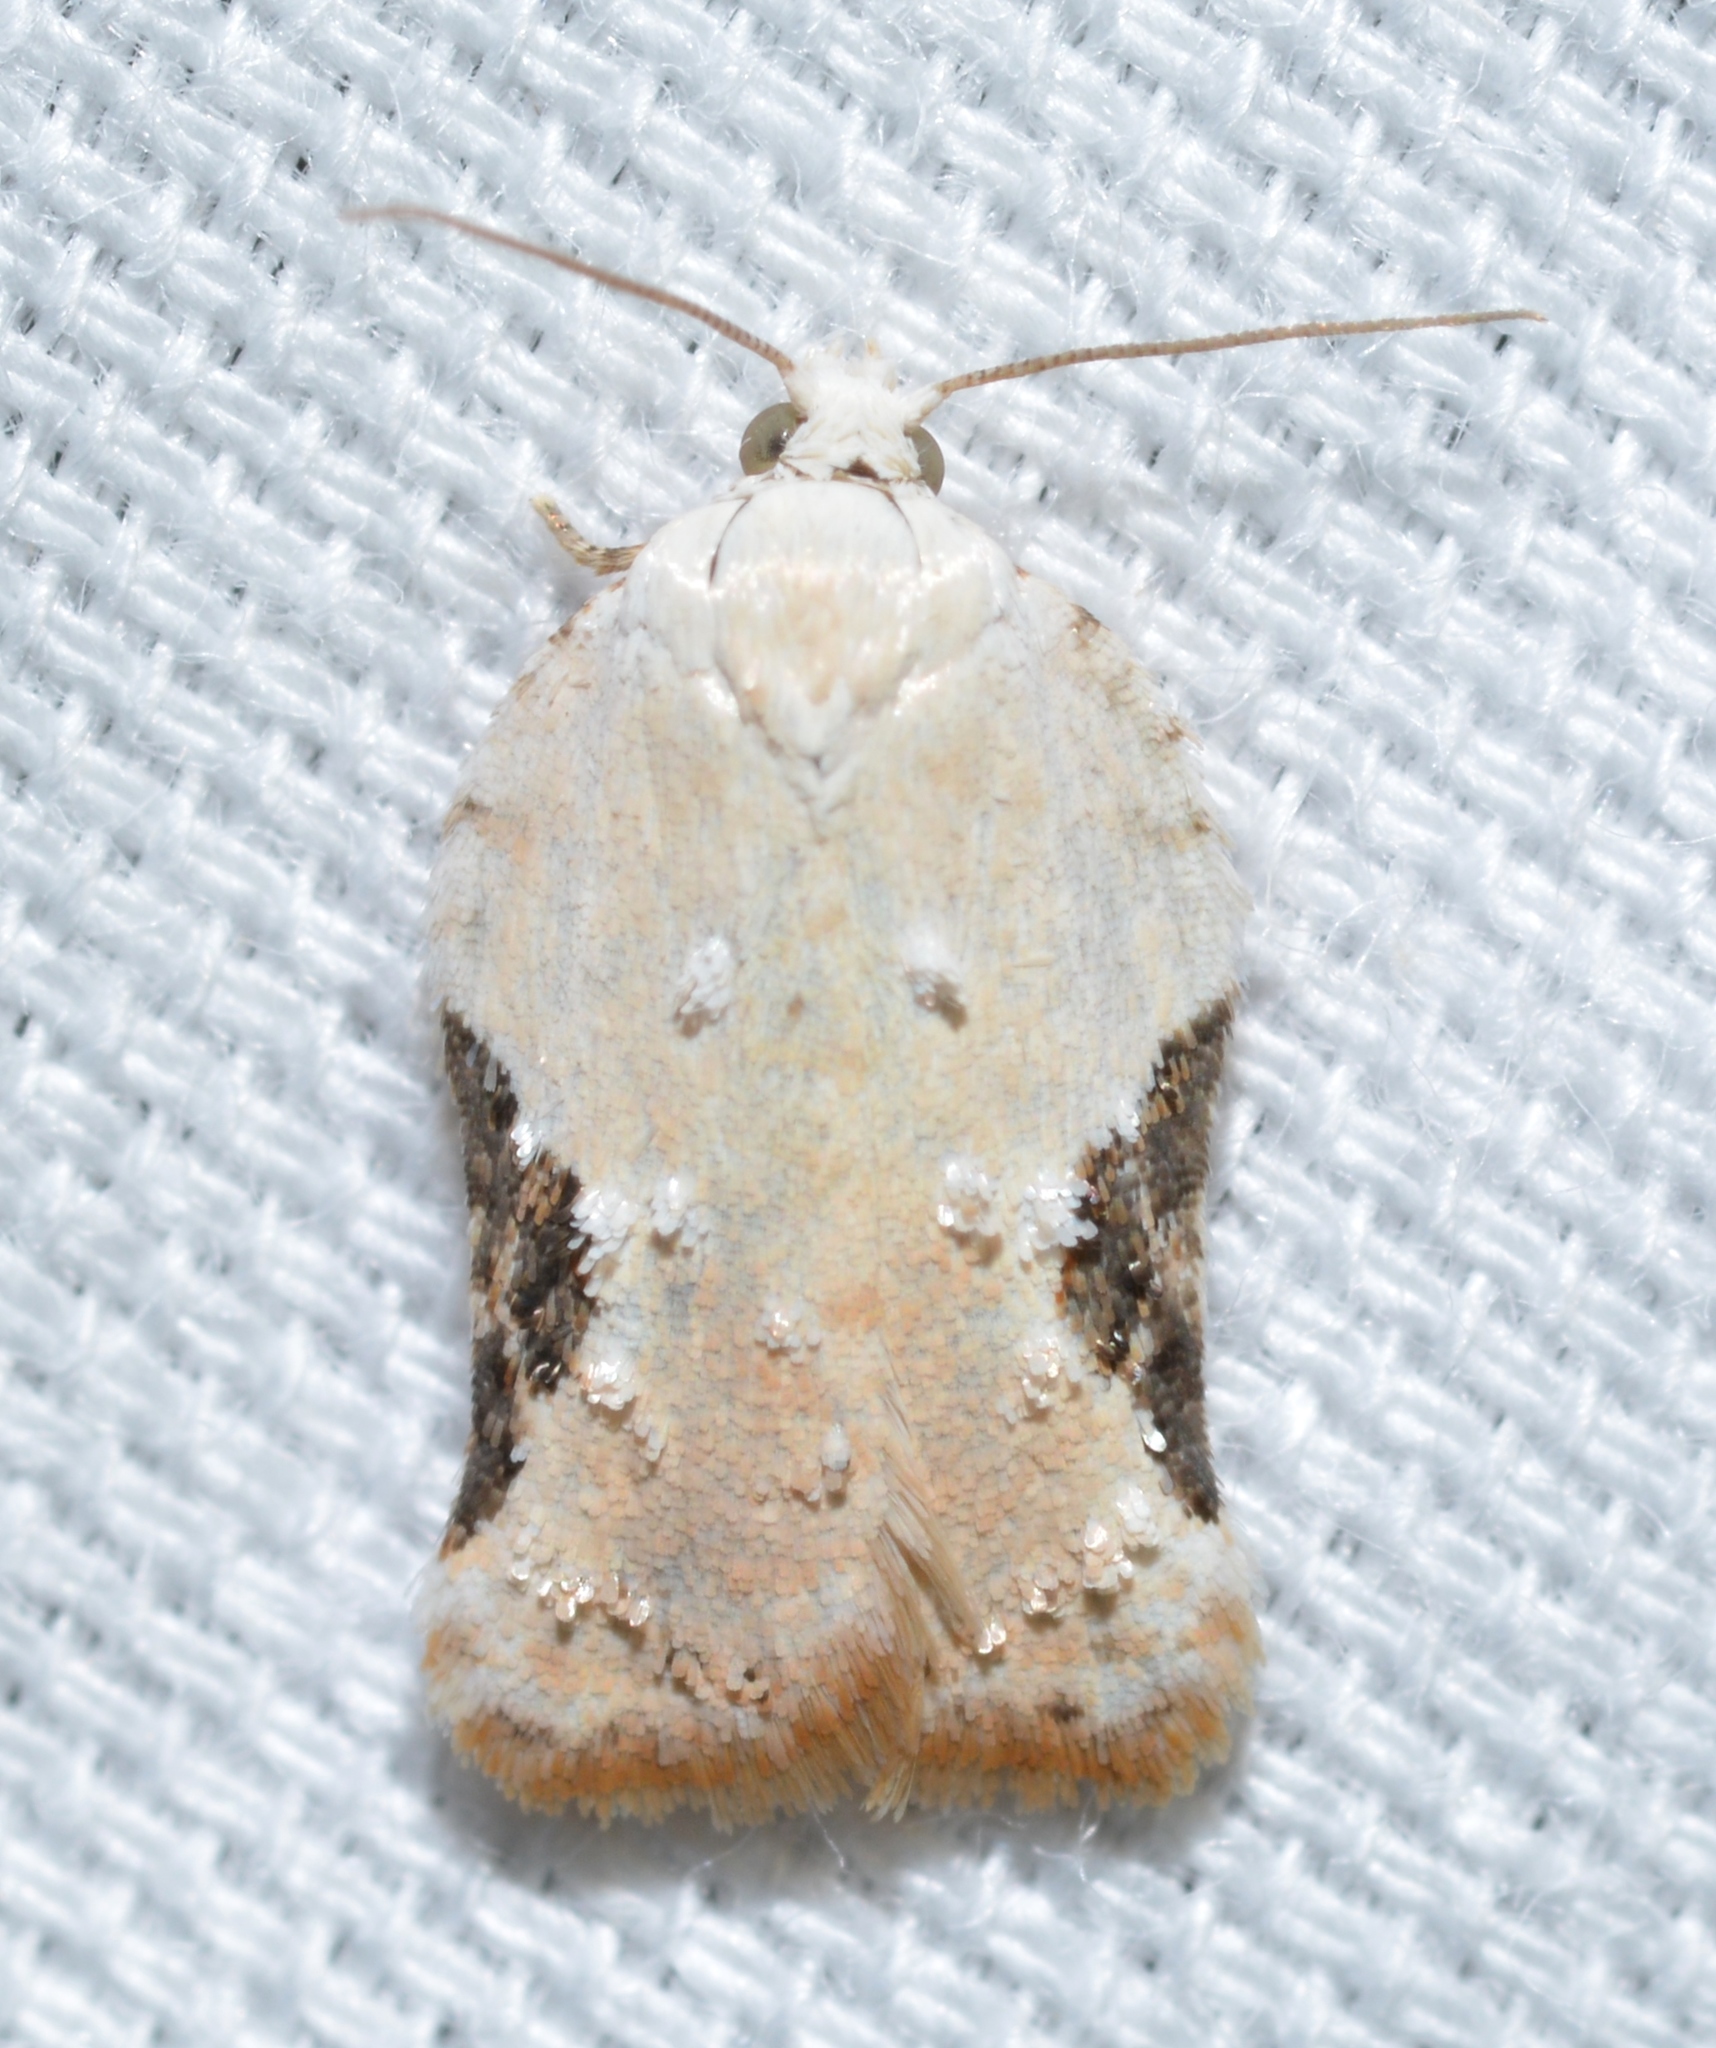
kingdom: Animalia
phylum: Arthropoda
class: Insecta
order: Lepidoptera
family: Tortricidae
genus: Acleris
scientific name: Acleris subnivana
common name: Bent-winged acleris moth
